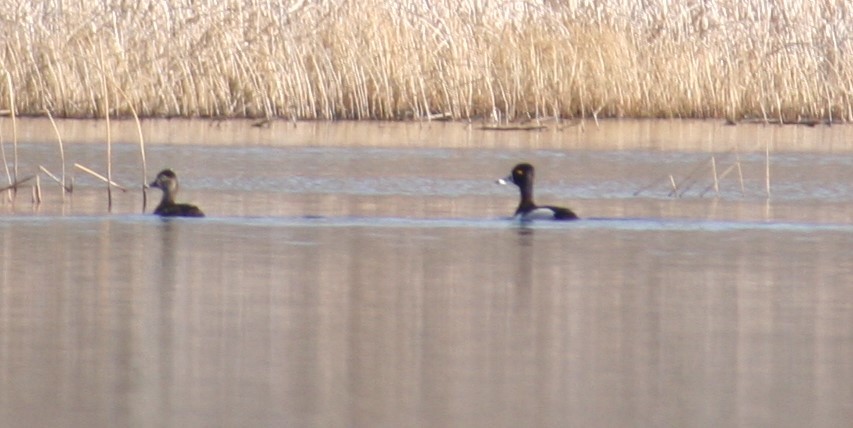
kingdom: Animalia
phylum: Chordata
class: Aves
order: Anseriformes
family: Anatidae
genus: Aythya
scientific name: Aythya collaris
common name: Ring-necked duck
